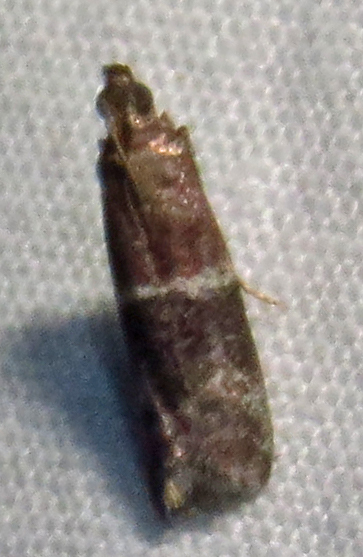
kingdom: Animalia
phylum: Arthropoda
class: Insecta
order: Lepidoptera
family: Pyralidae
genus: Moodna
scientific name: Moodna ostrinella
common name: Darker moodna moth
